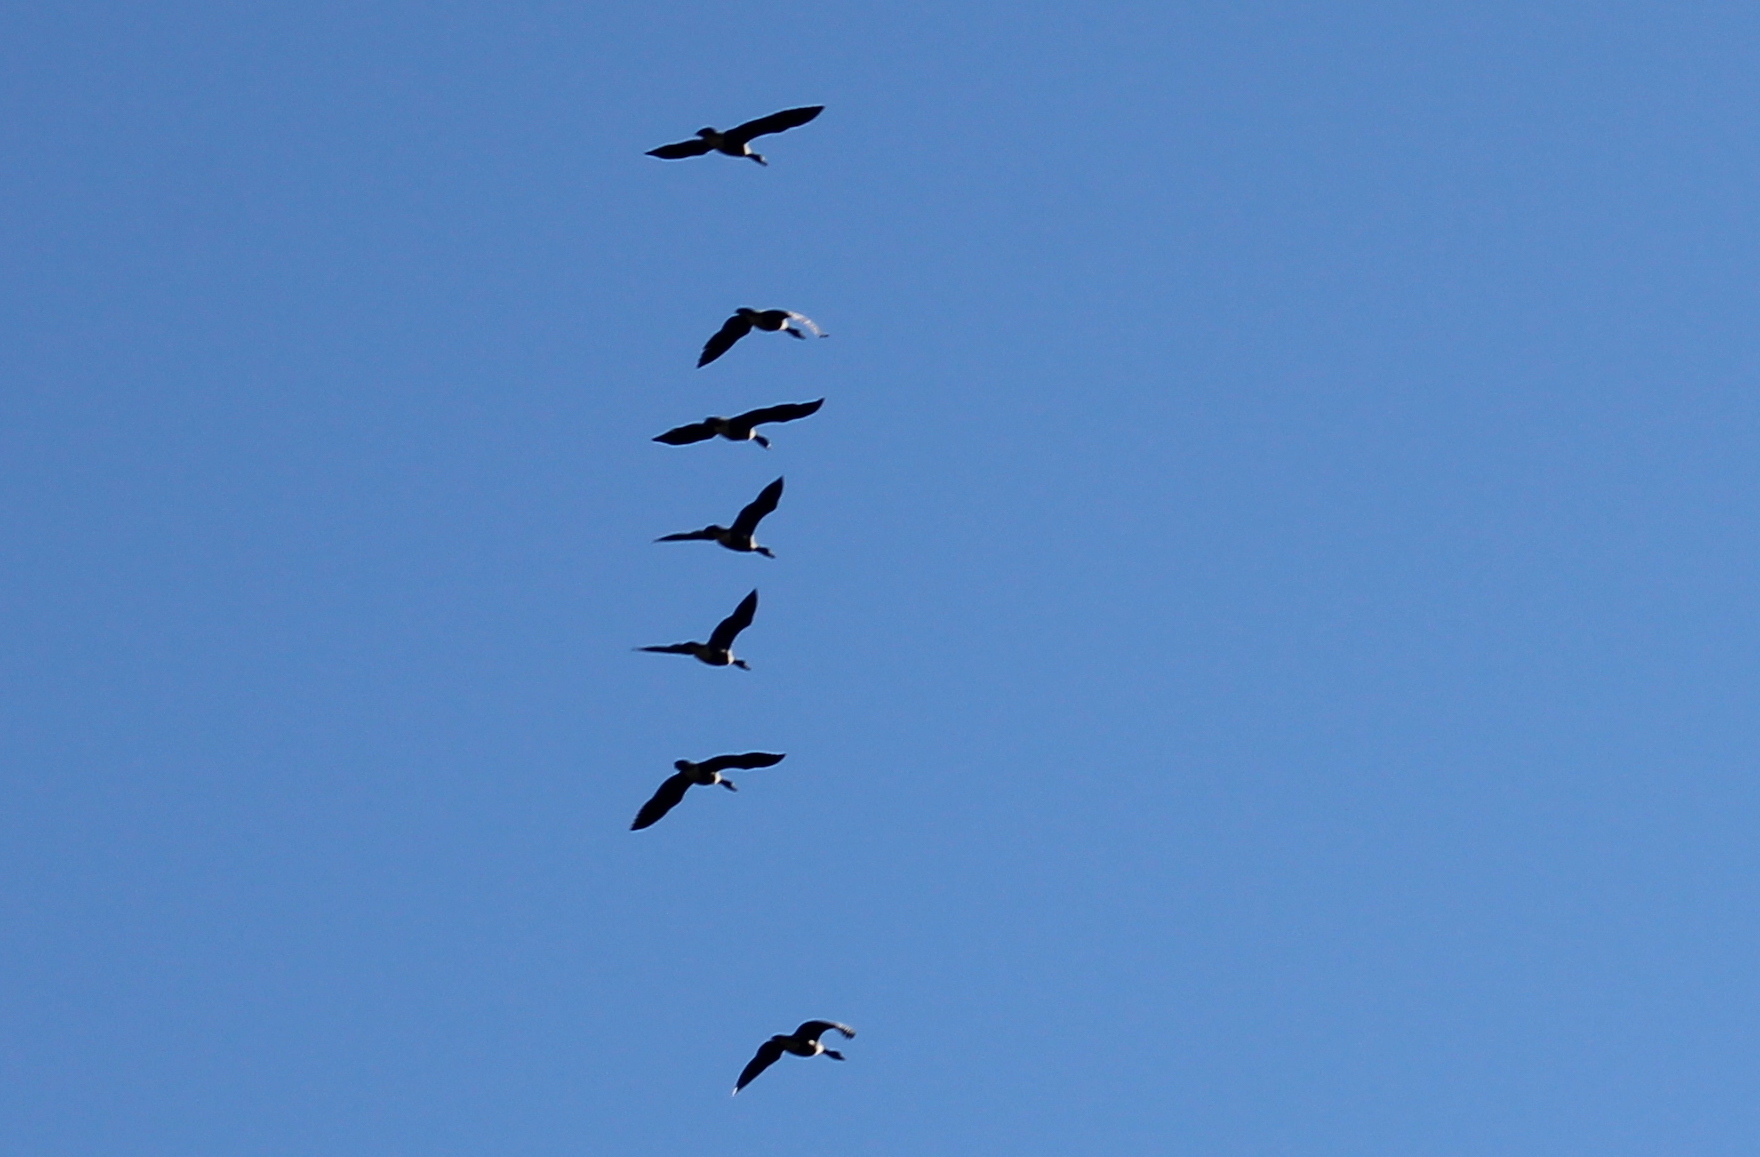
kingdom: Animalia
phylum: Chordata
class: Aves
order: Anseriformes
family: Anatidae
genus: Branta
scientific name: Branta canadensis
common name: Canada goose
